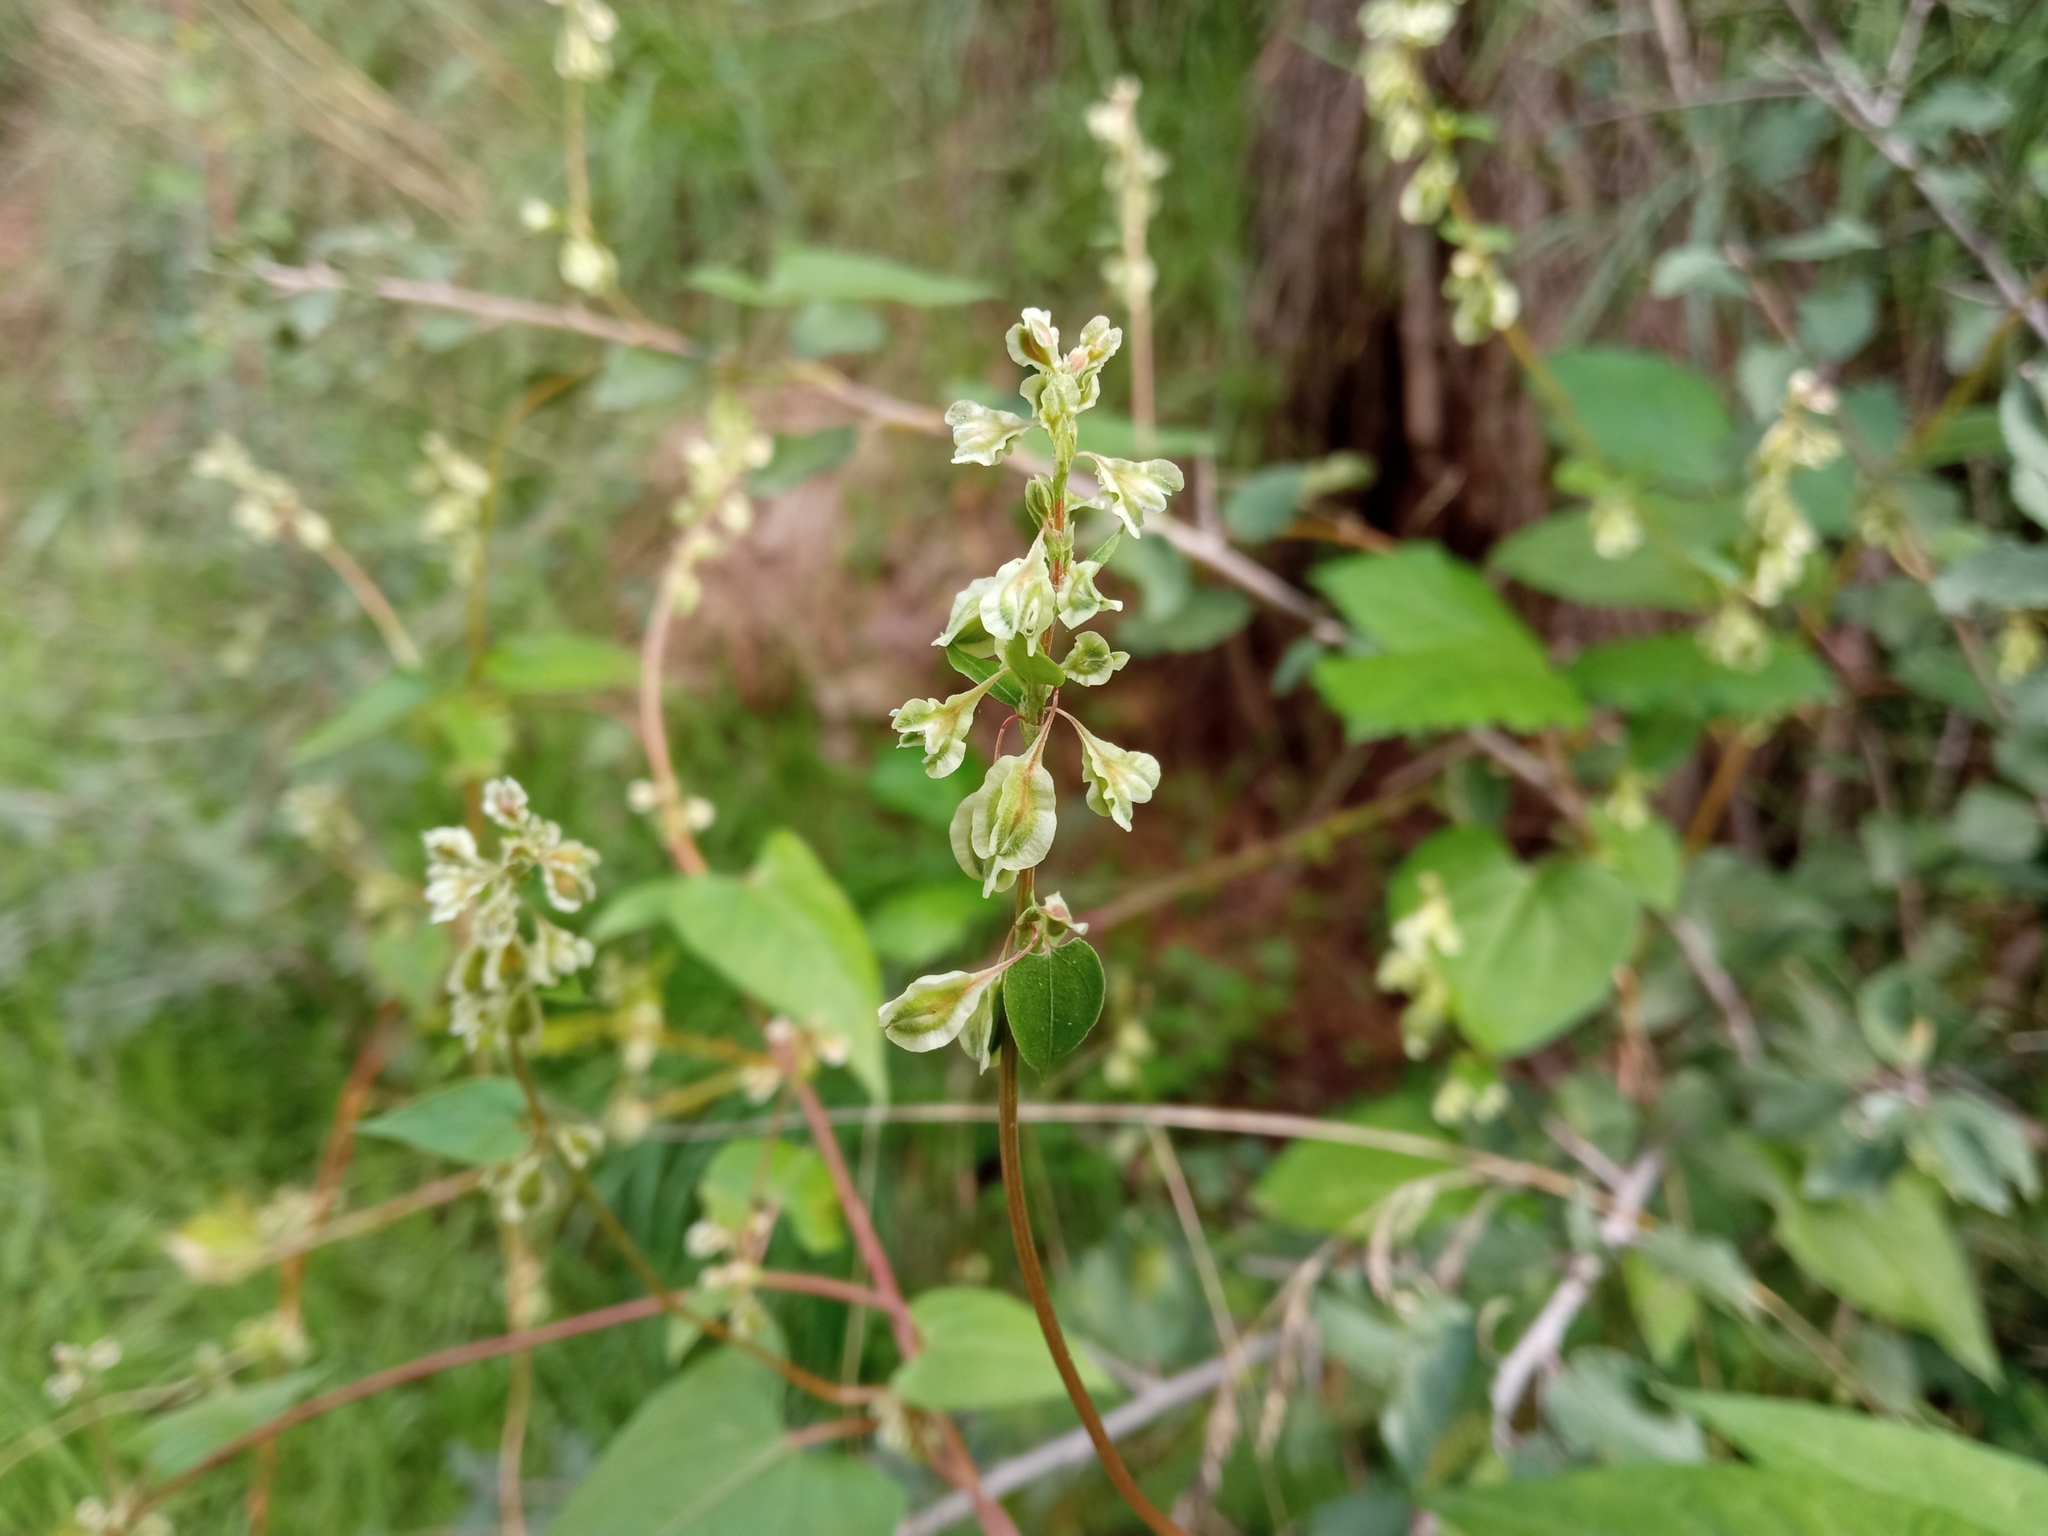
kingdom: Plantae
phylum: Tracheophyta
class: Magnoliopsida
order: Caryophyllales
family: Polygonaceae
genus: Fallopia
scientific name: Fallopia dumetorum
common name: Copse-bindweed
